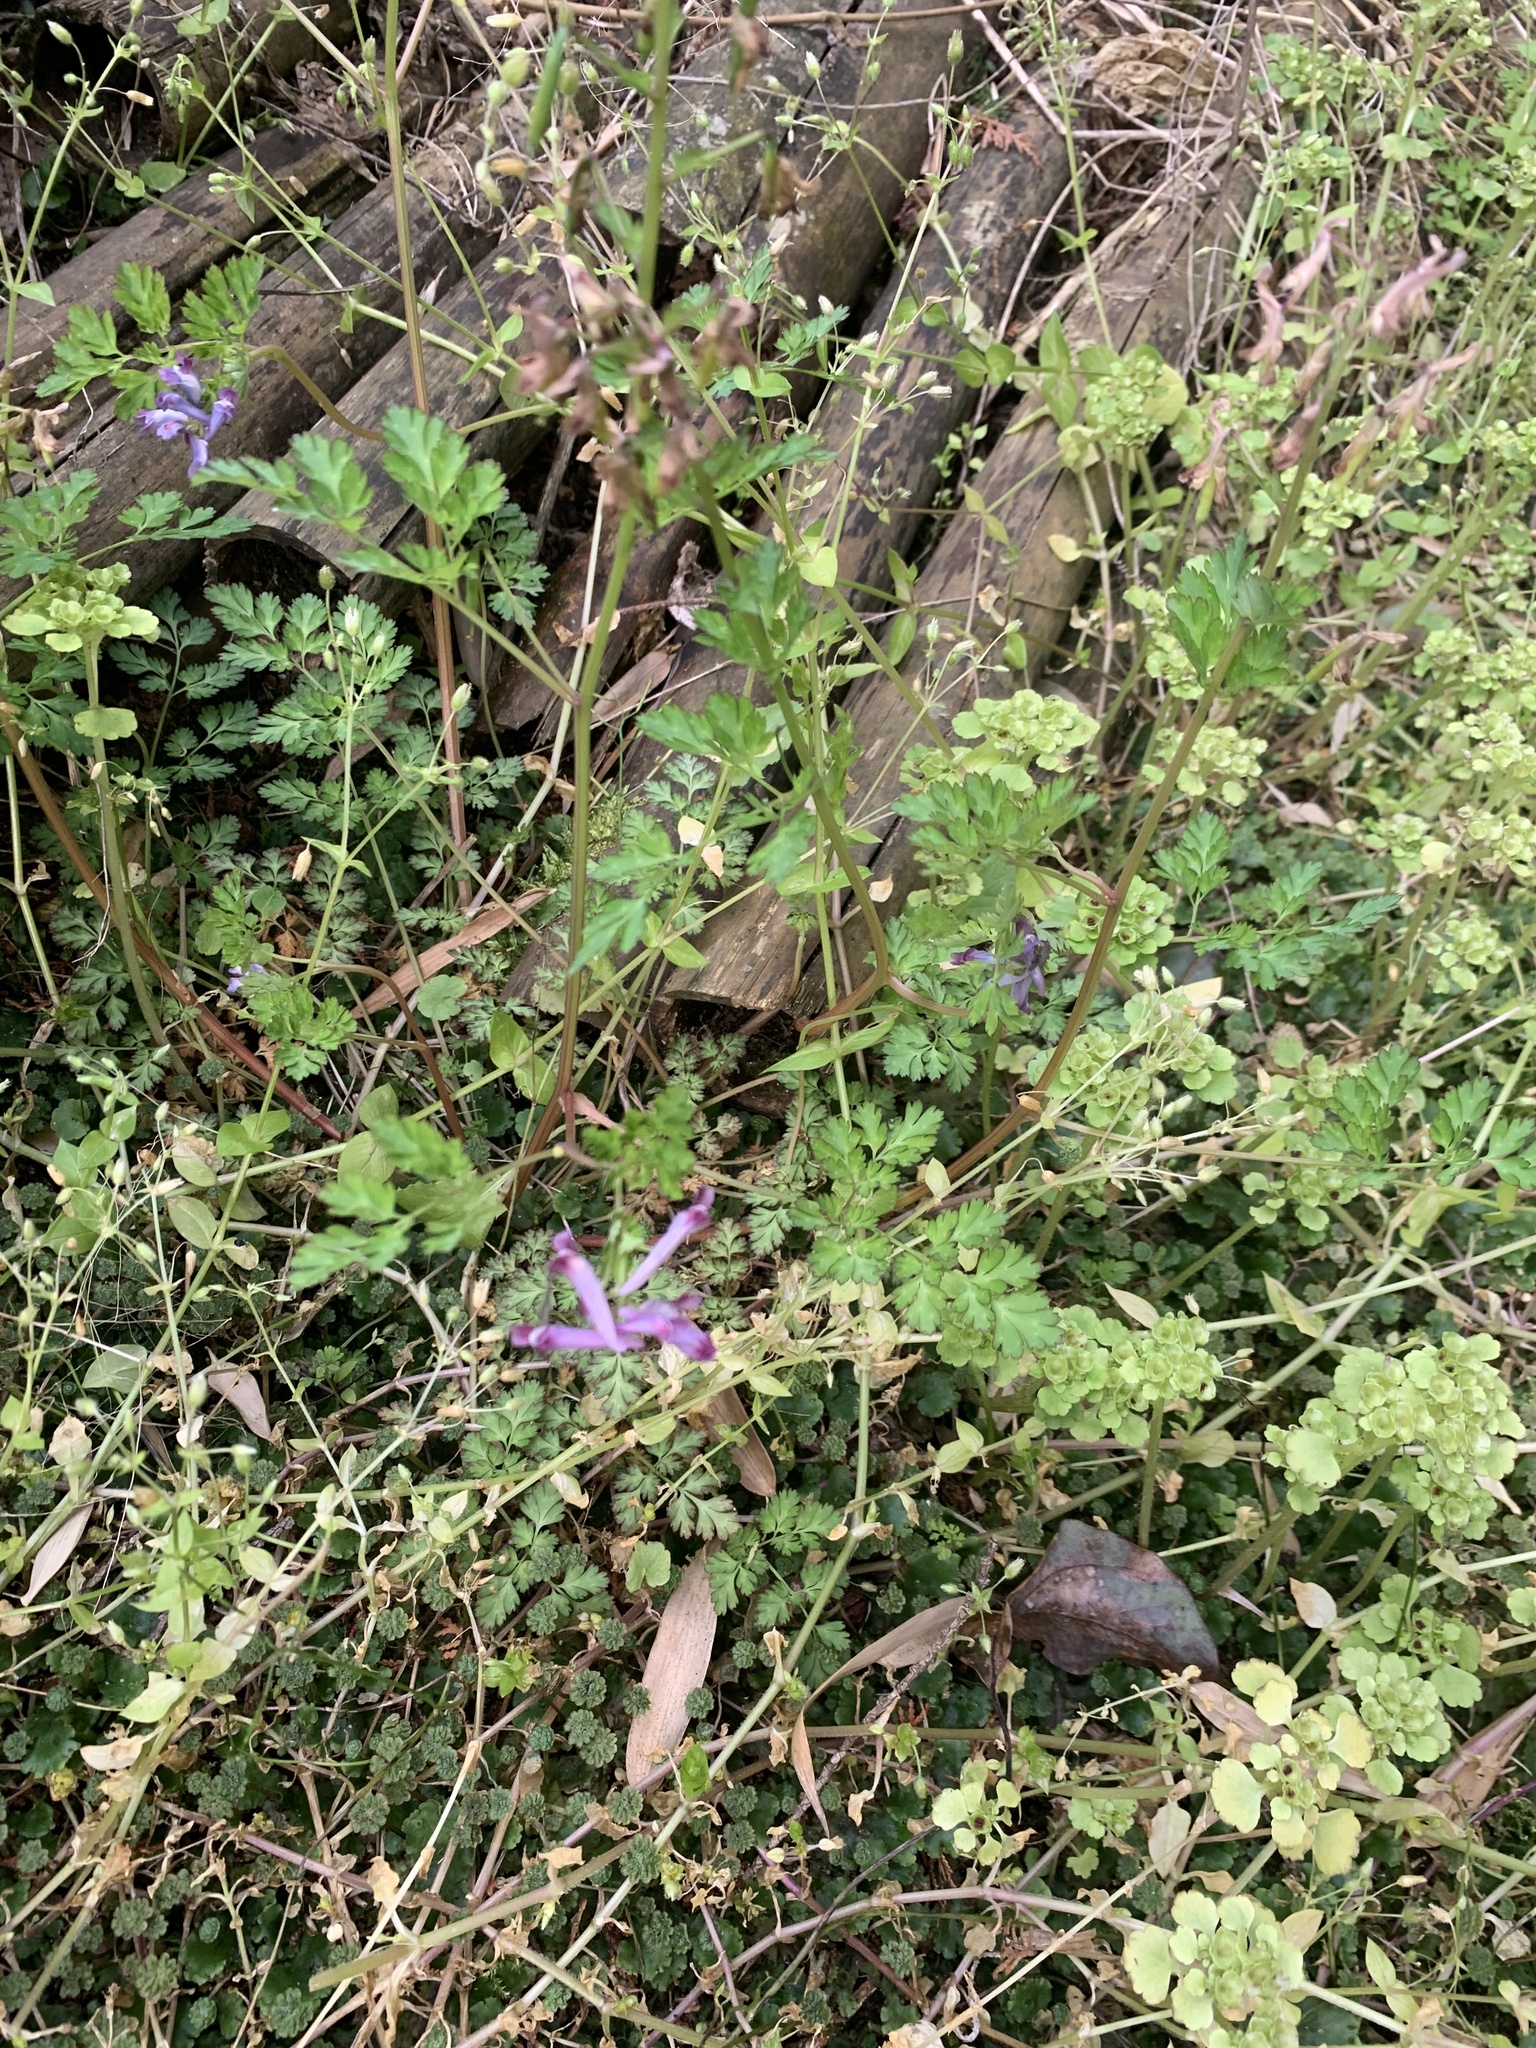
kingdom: Plantae
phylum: Tracheophyta
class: Magnoliopsida
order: Ranunculales
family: Papaveraceae
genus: Corydalis
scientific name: Corydalis incisa
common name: Incised fumewort
